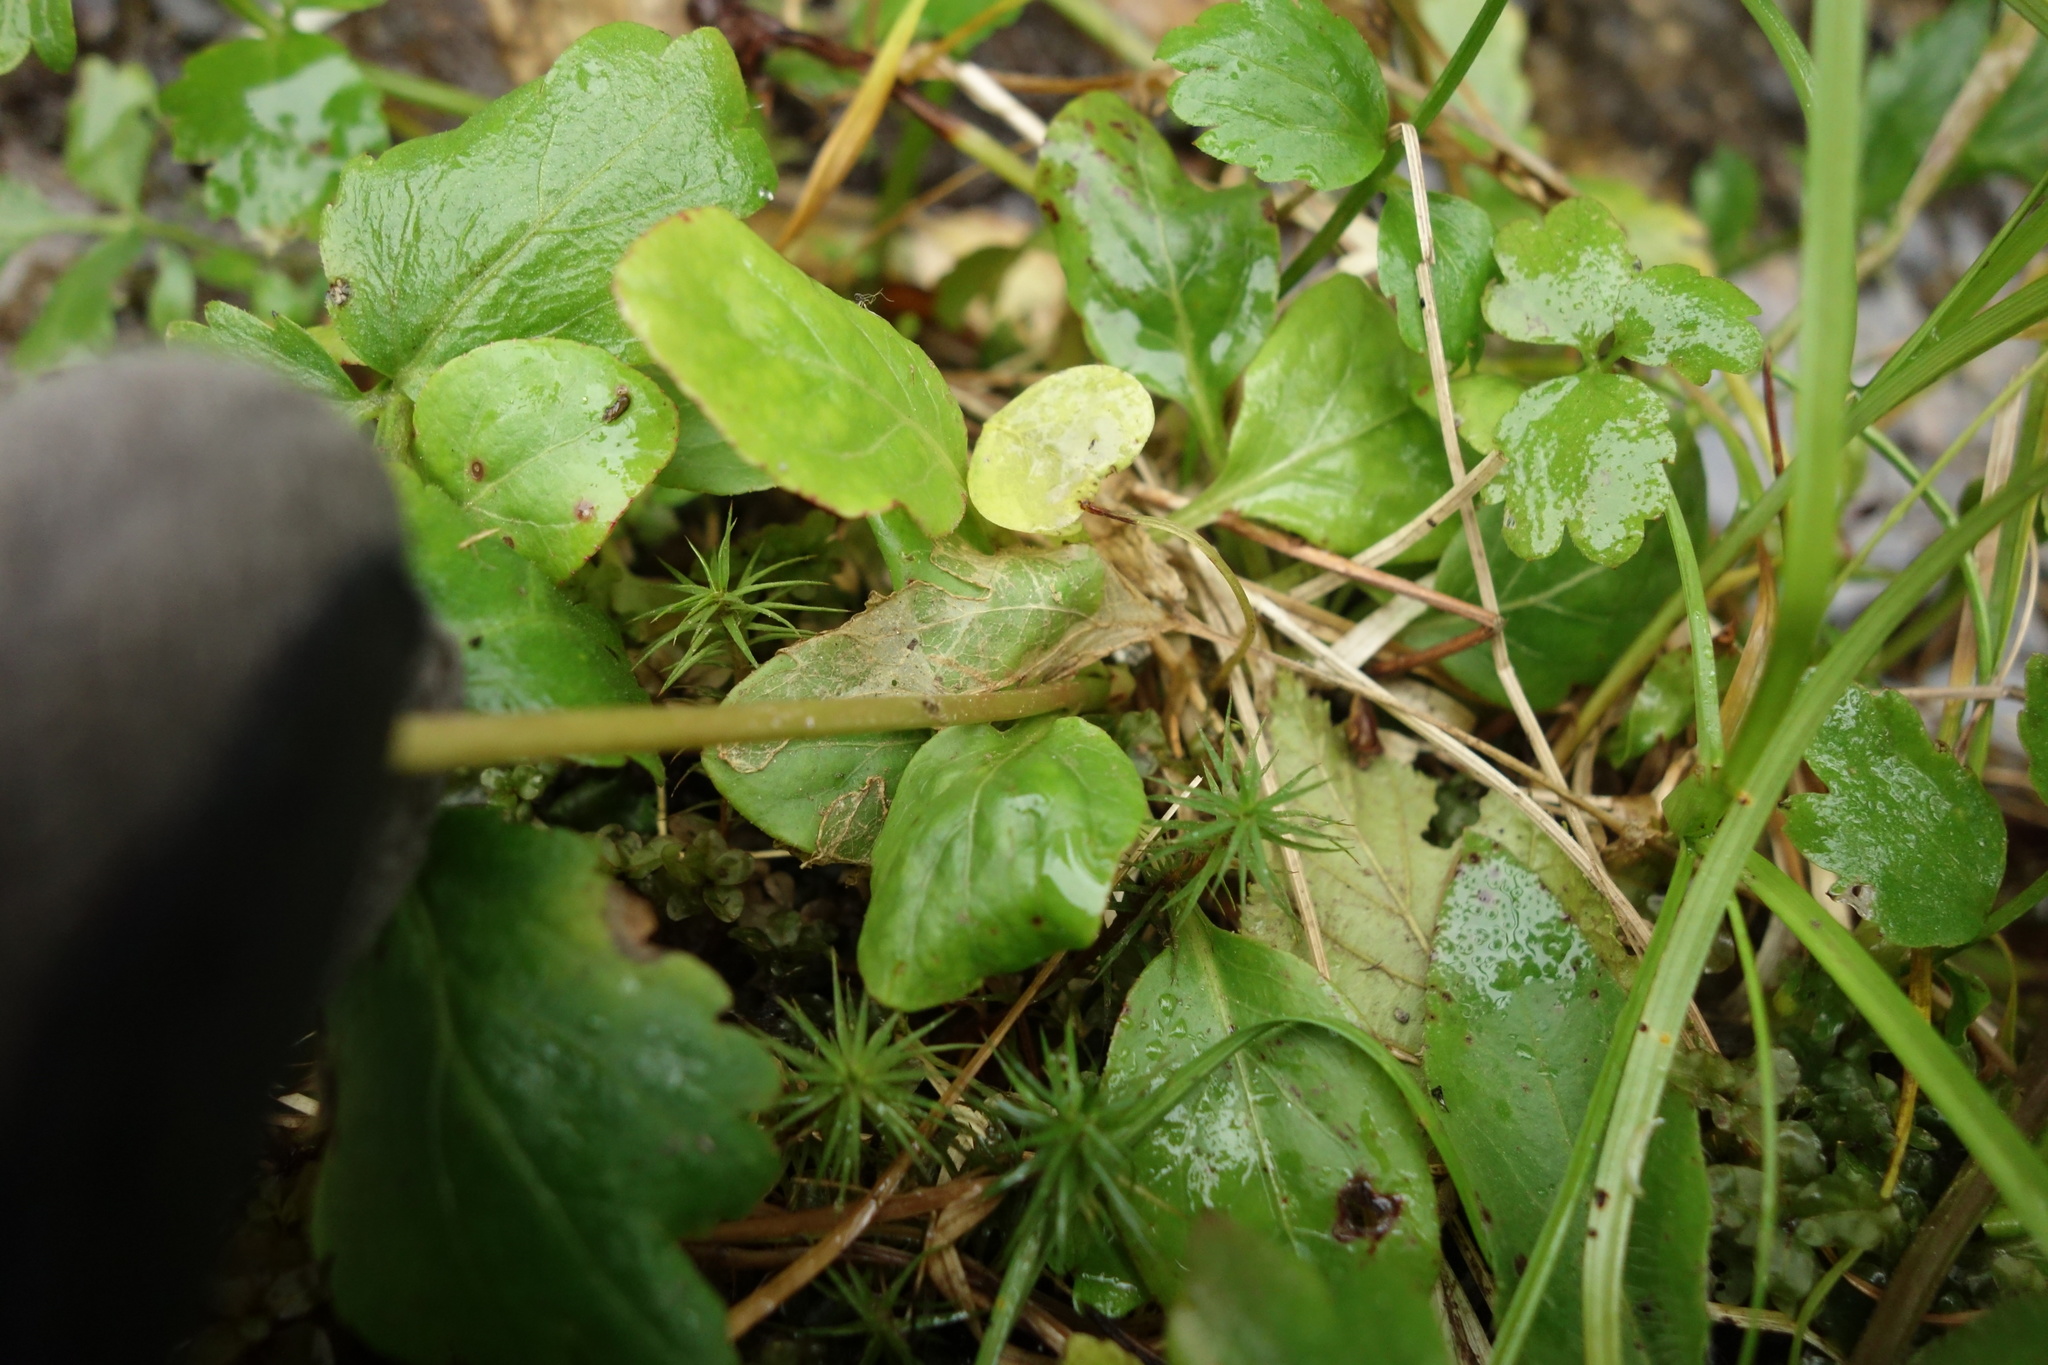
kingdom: Plantae
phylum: Tracheophyta
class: Magnoliopsida
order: Ericales
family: Ericaceae
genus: Pyrola
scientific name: Pyrola minor
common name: Common wintergreen
